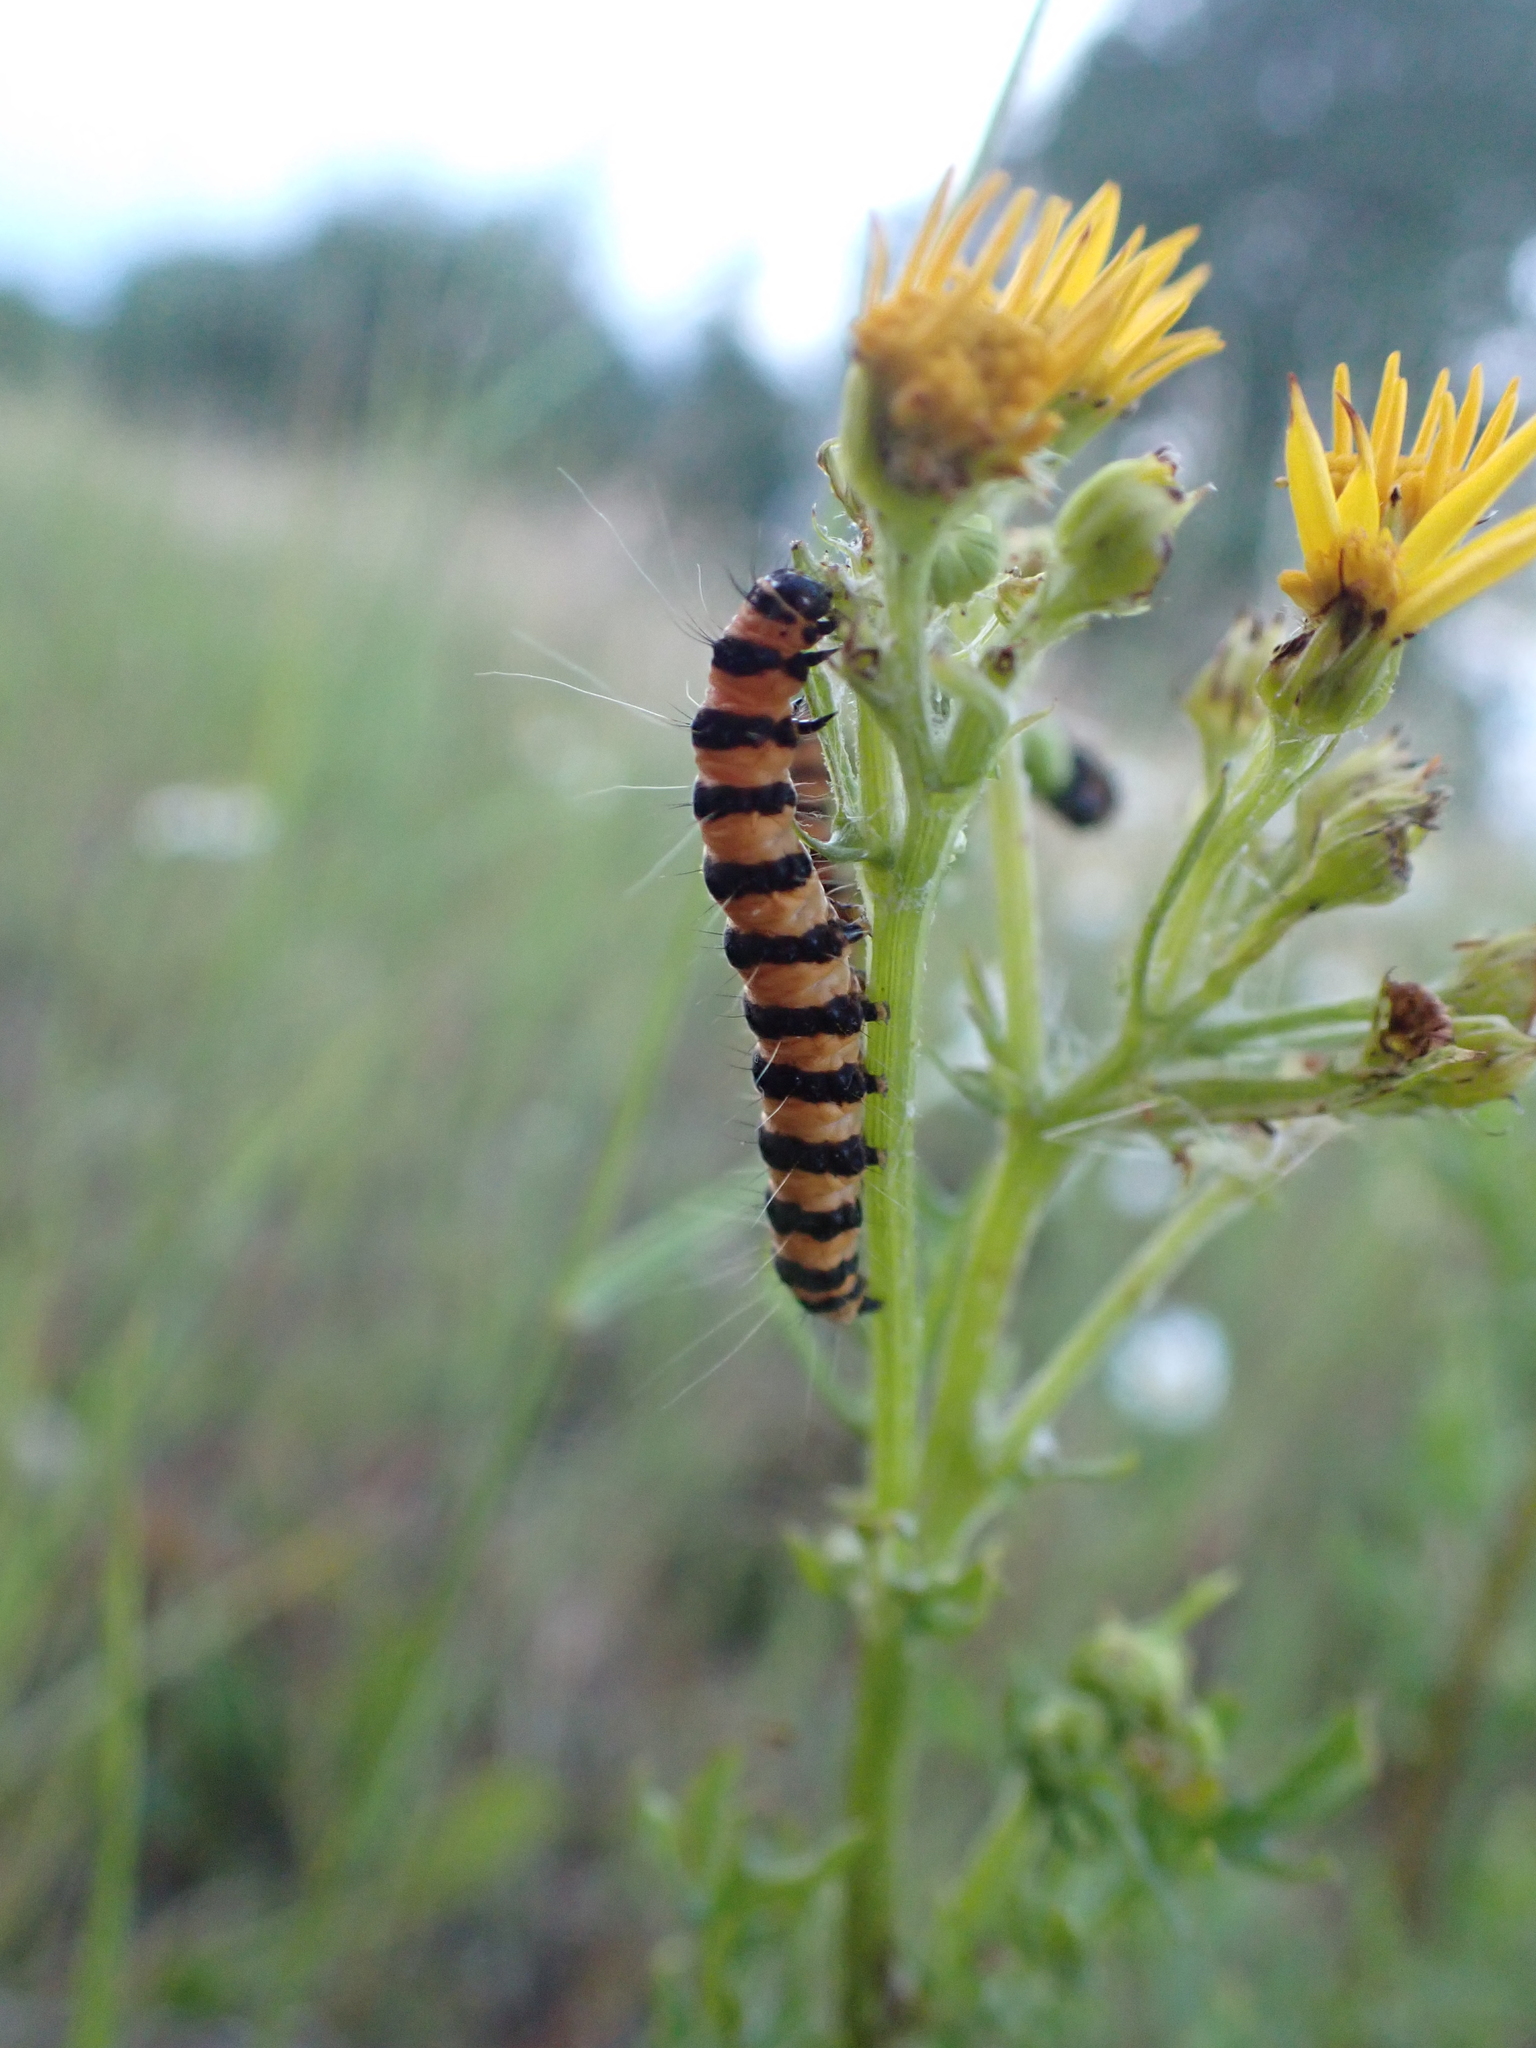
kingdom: Animalia
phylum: Arthropoda
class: Insecta
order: Lepidoptera
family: Erebidae
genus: Tyria
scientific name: Tyria jacobaeae
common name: Cinnabar
